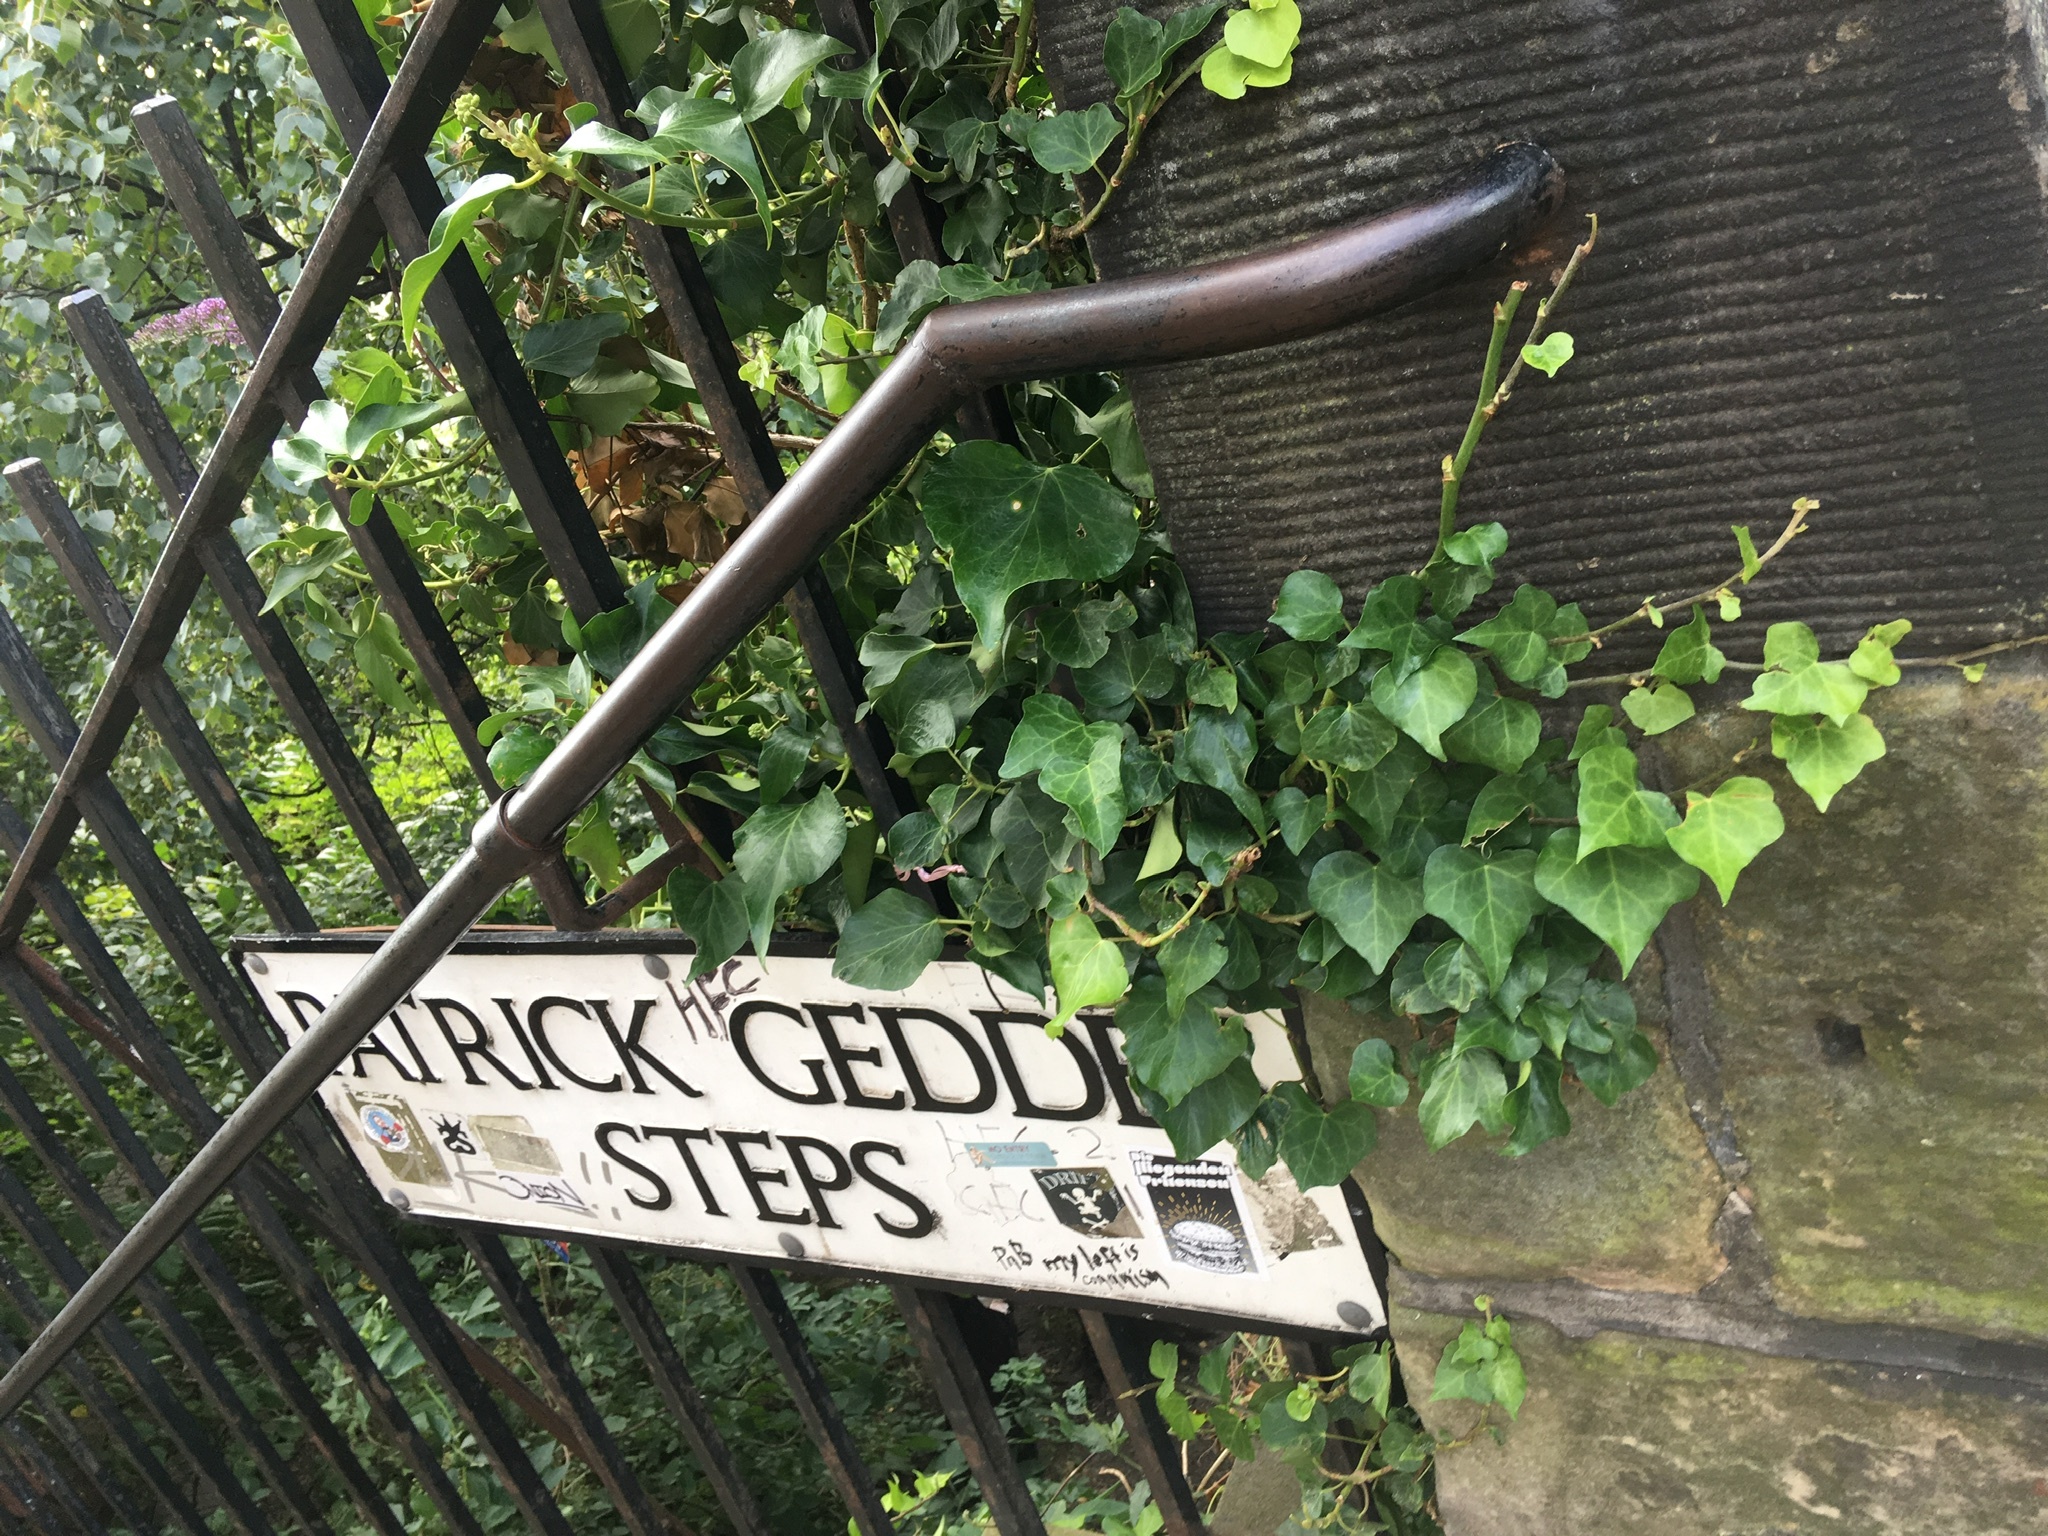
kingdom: Plantae
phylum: Tracheophyta
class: Magnoliopsida
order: Apiales
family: Araliaceae
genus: Hedera
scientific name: Hedera helix
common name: Ivy
